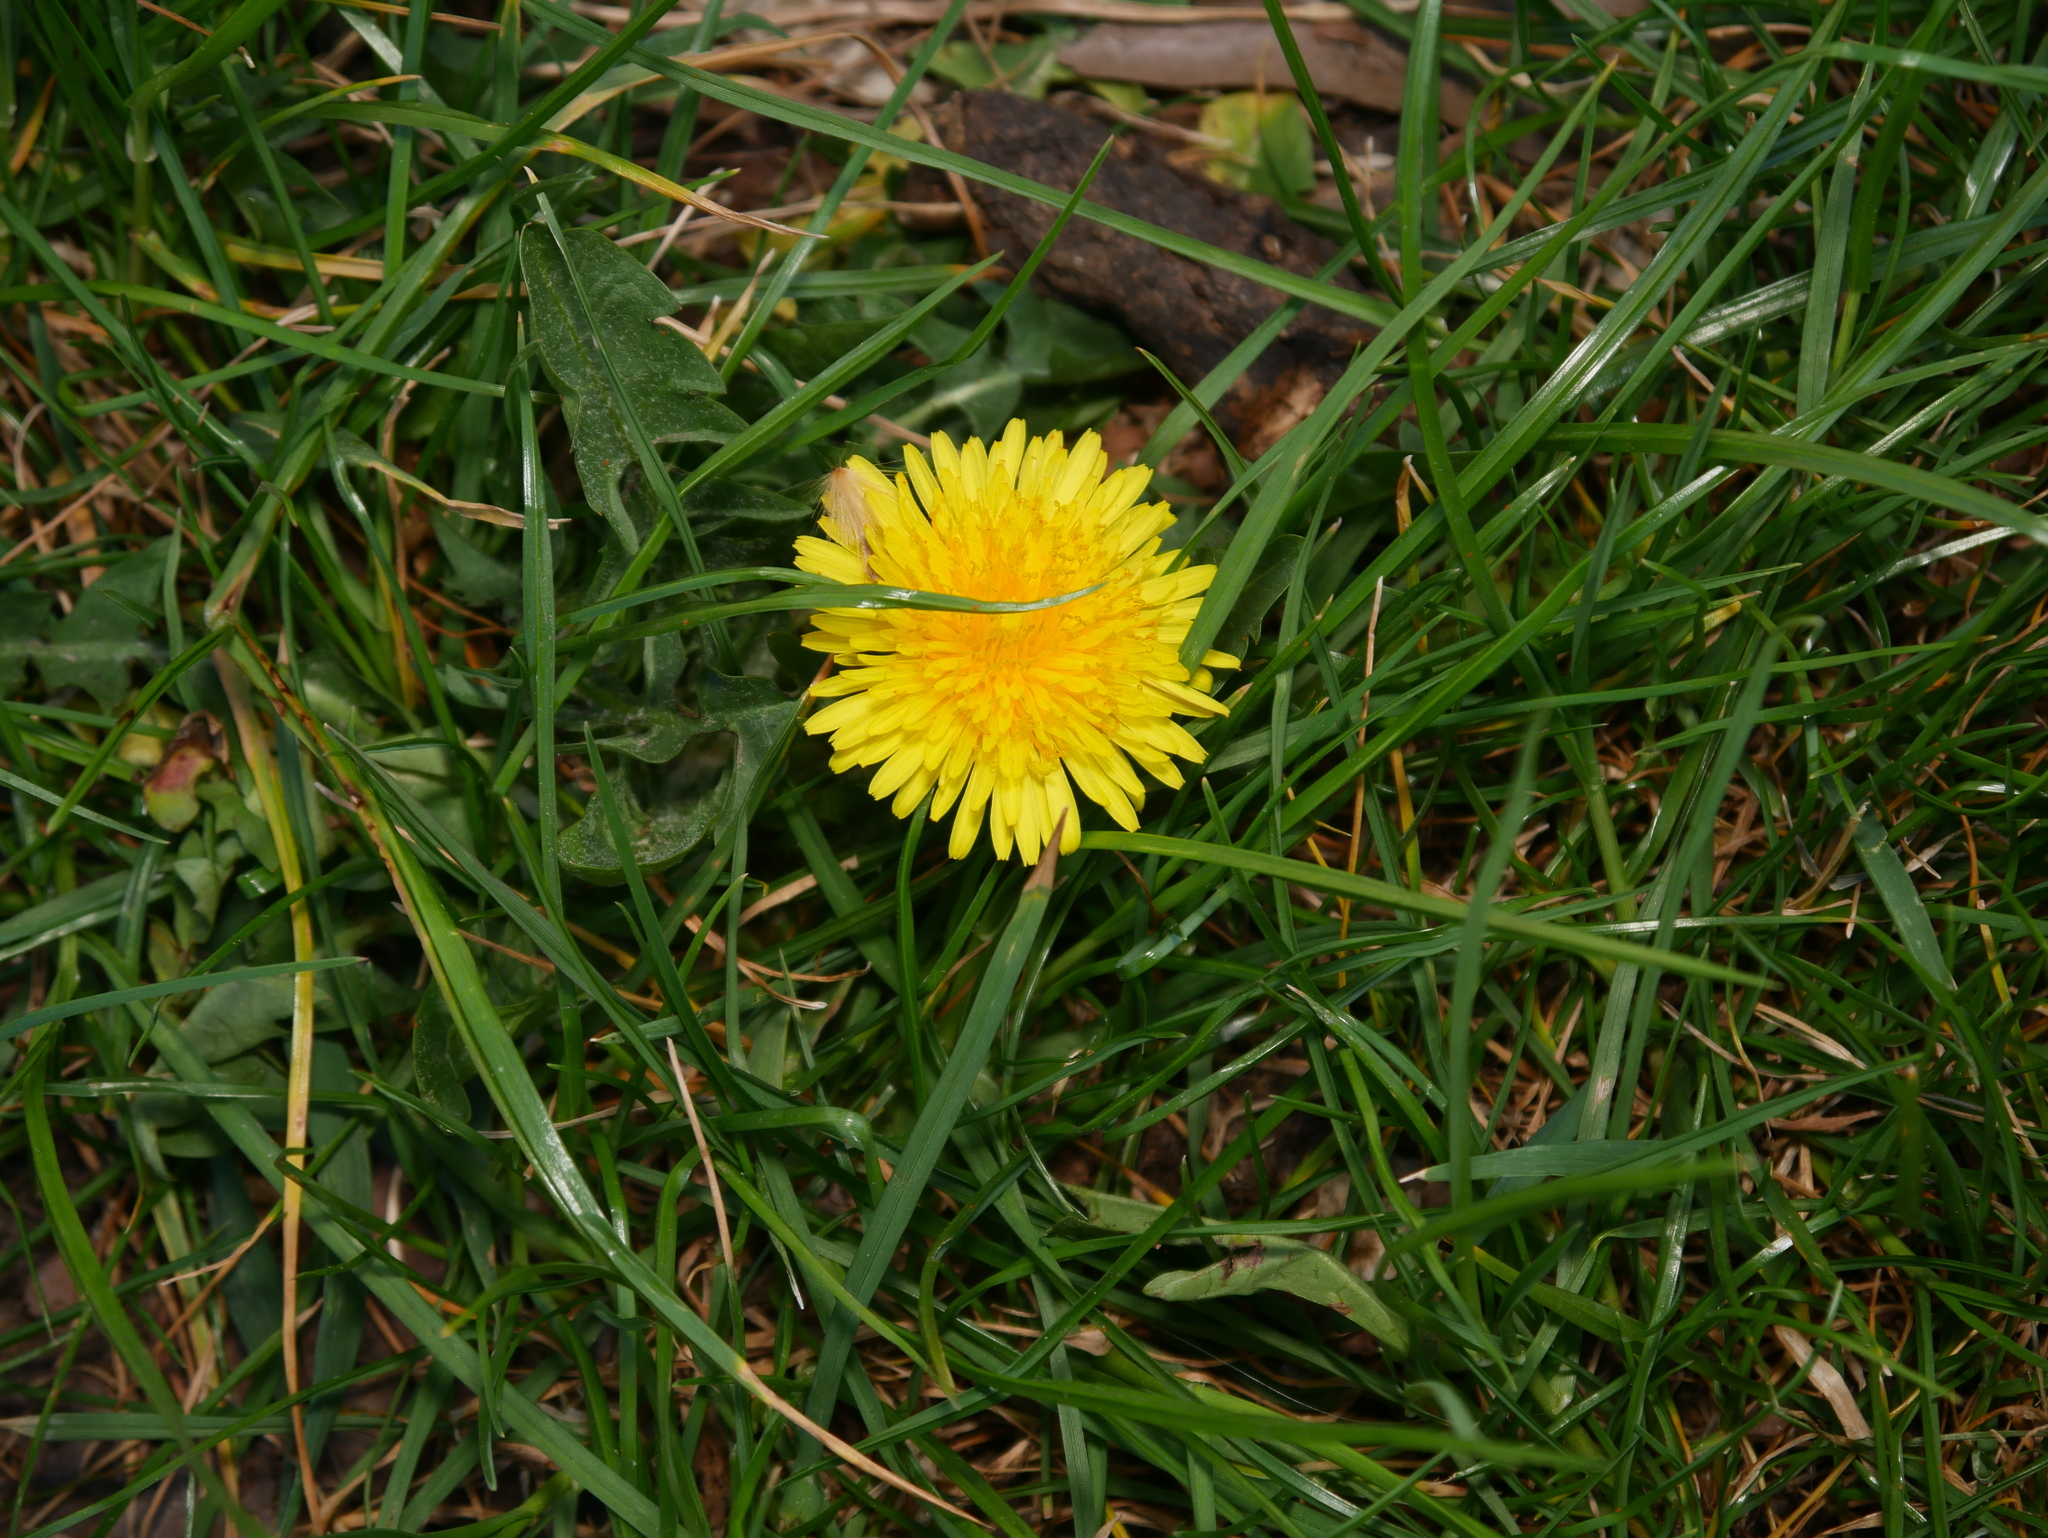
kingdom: Plantae
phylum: Tracheophyta
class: Magnoliopsida
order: Asterales
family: Asteraceae
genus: Taraxacum
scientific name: Taraxacum officinale
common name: Common dandelion
